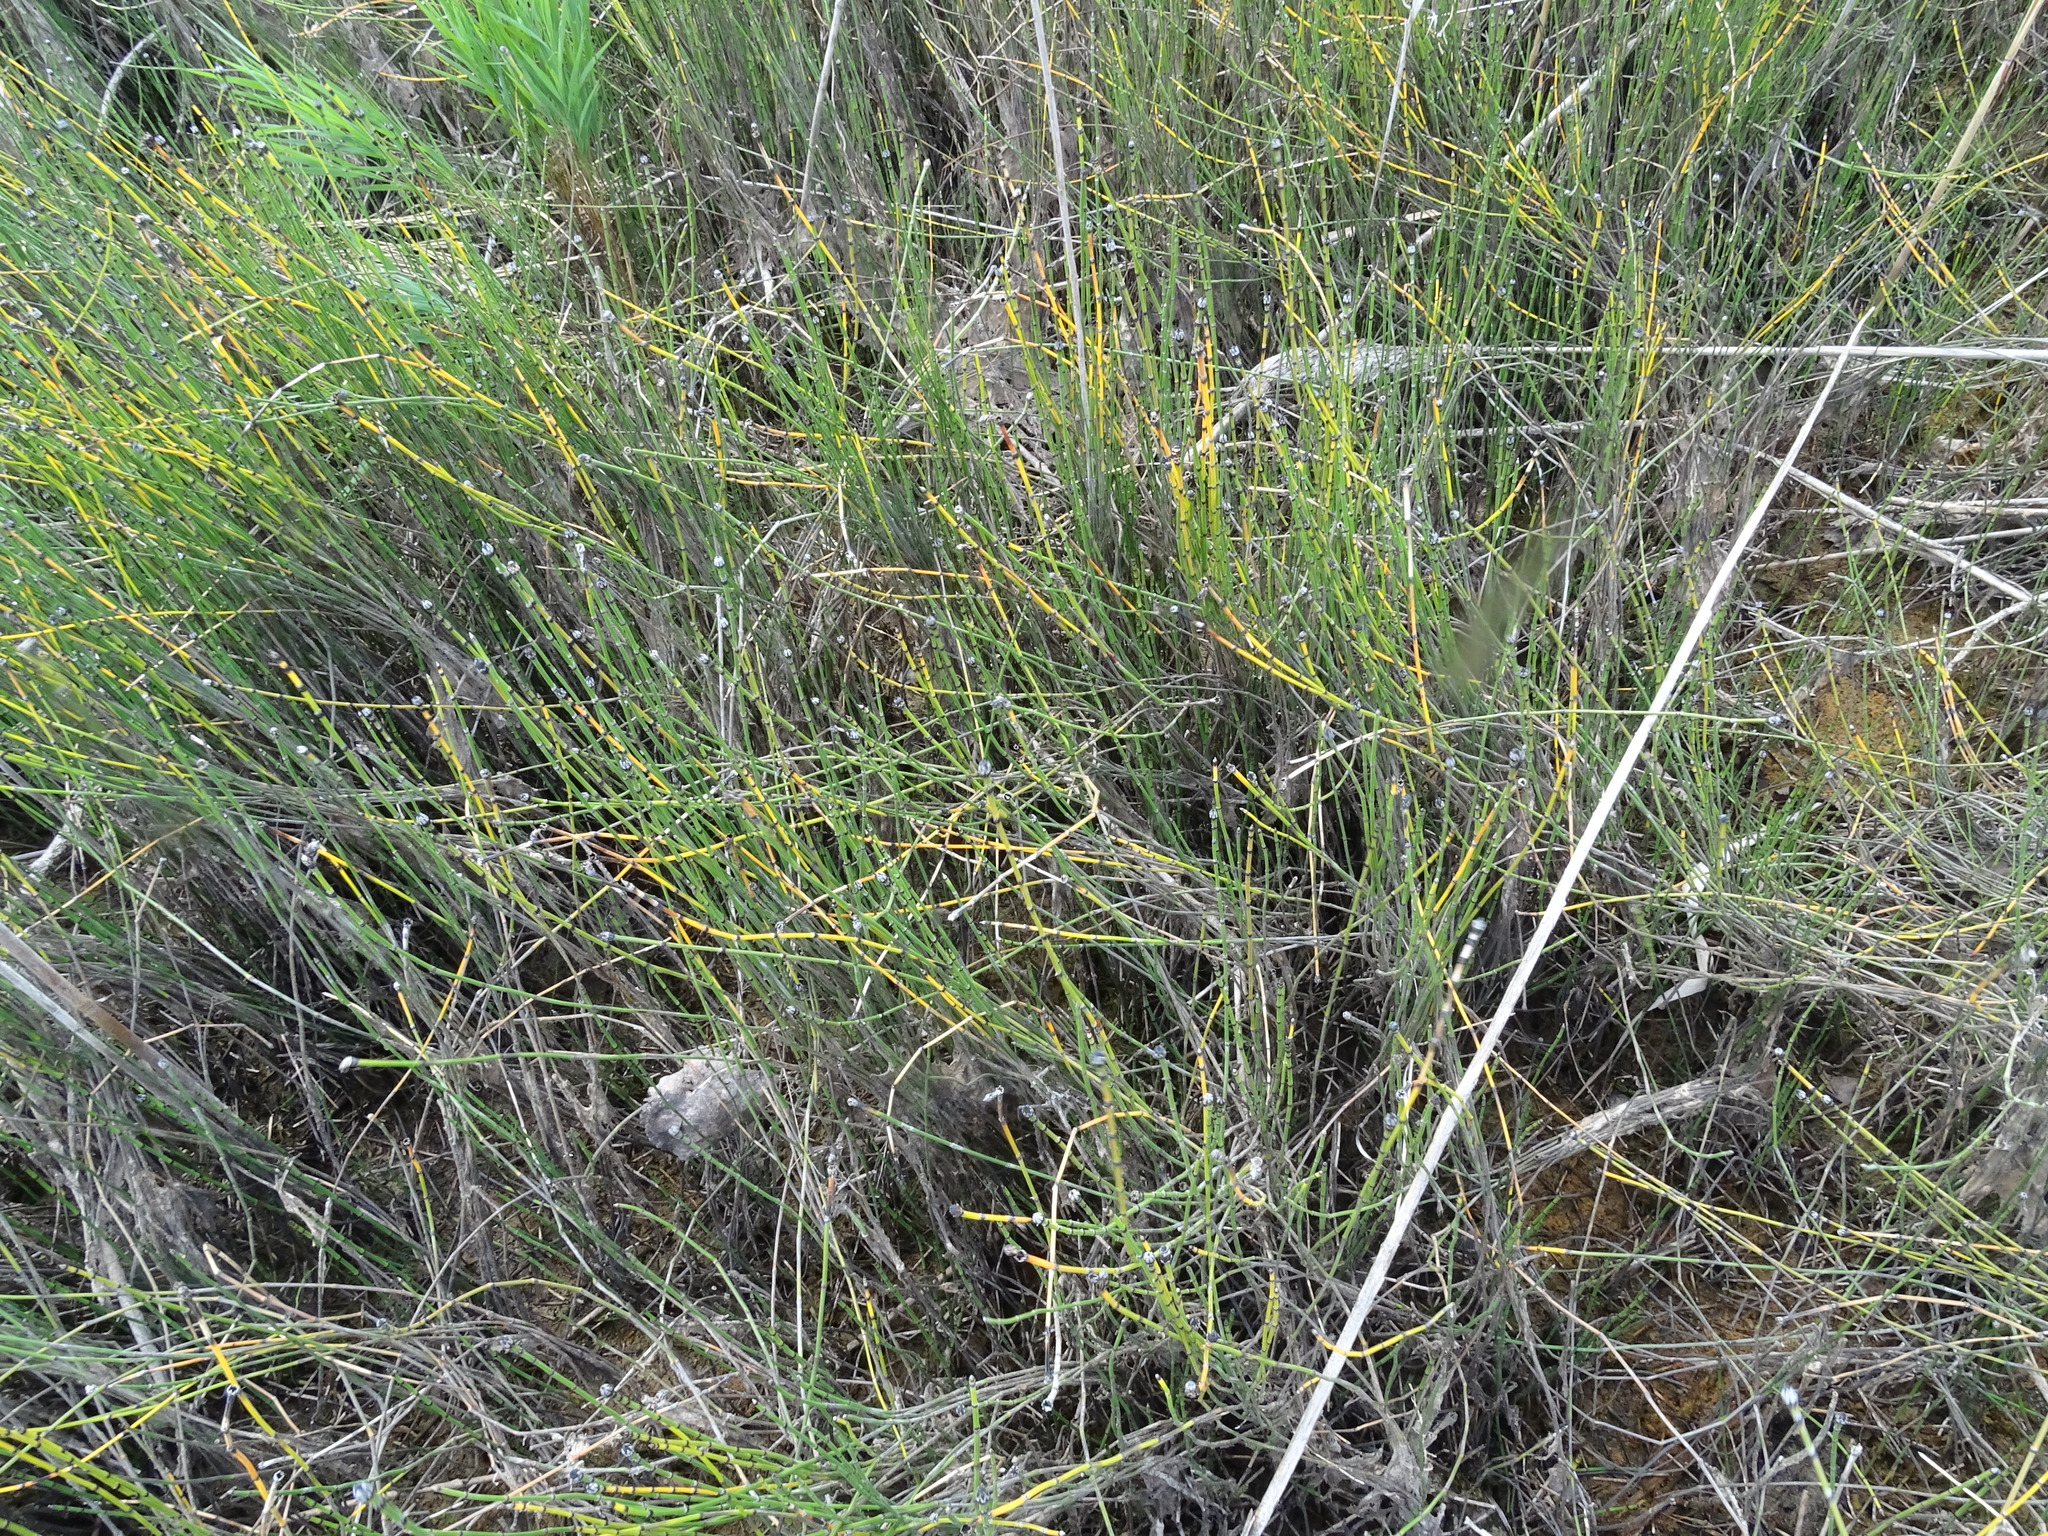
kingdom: Plantae
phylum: Tracheophyta
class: Polypodiopsida
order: Equisetales
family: Equisetaceae
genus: Equisetum
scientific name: Equisetum variegatum
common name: Variegated horsetail
